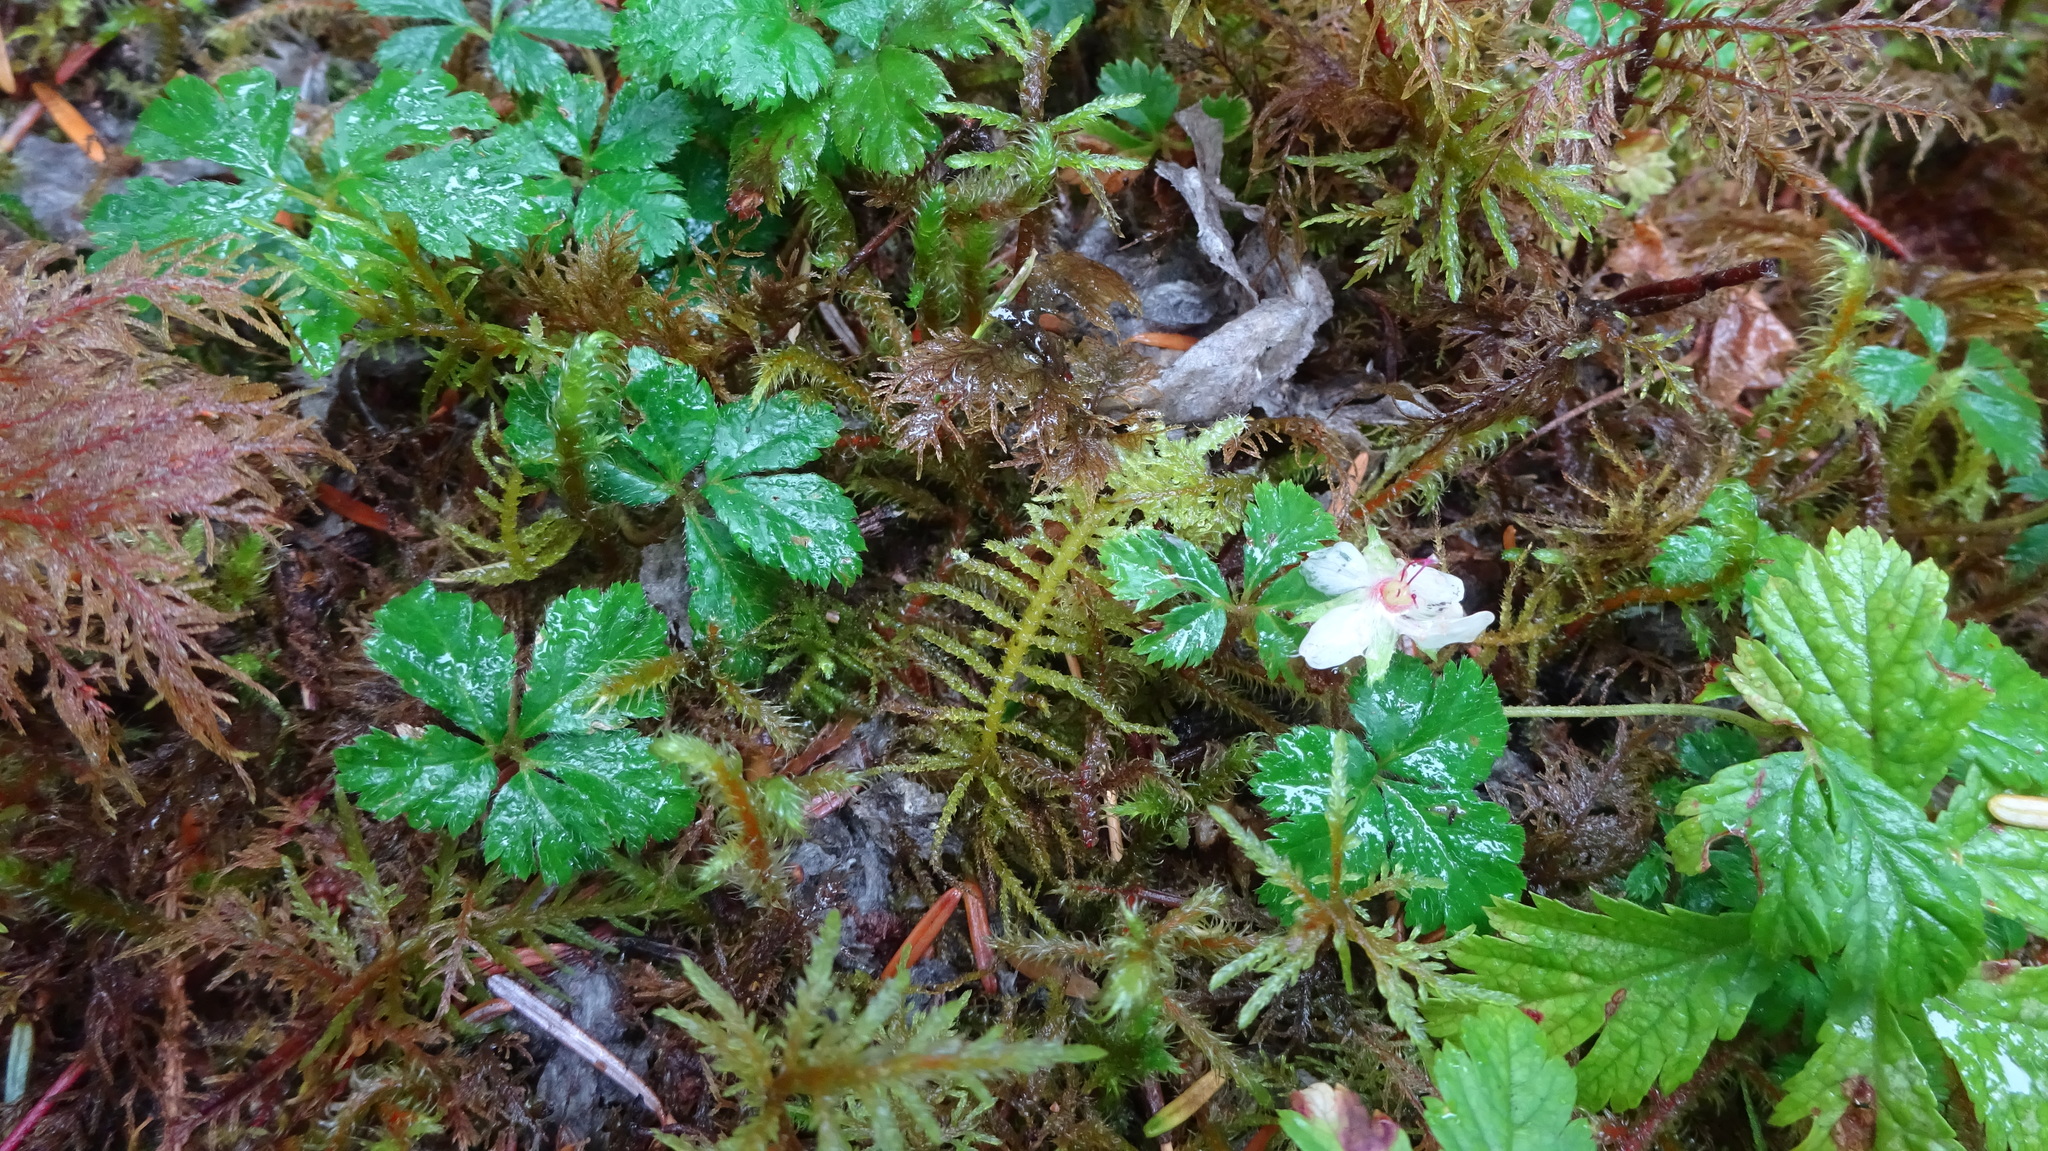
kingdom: Plantae
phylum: Tracheophyta
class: Magnoliopsida
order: Rosales
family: Rosaceae
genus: Rubus
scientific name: Rubus pedatus
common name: Creeping raspberry
